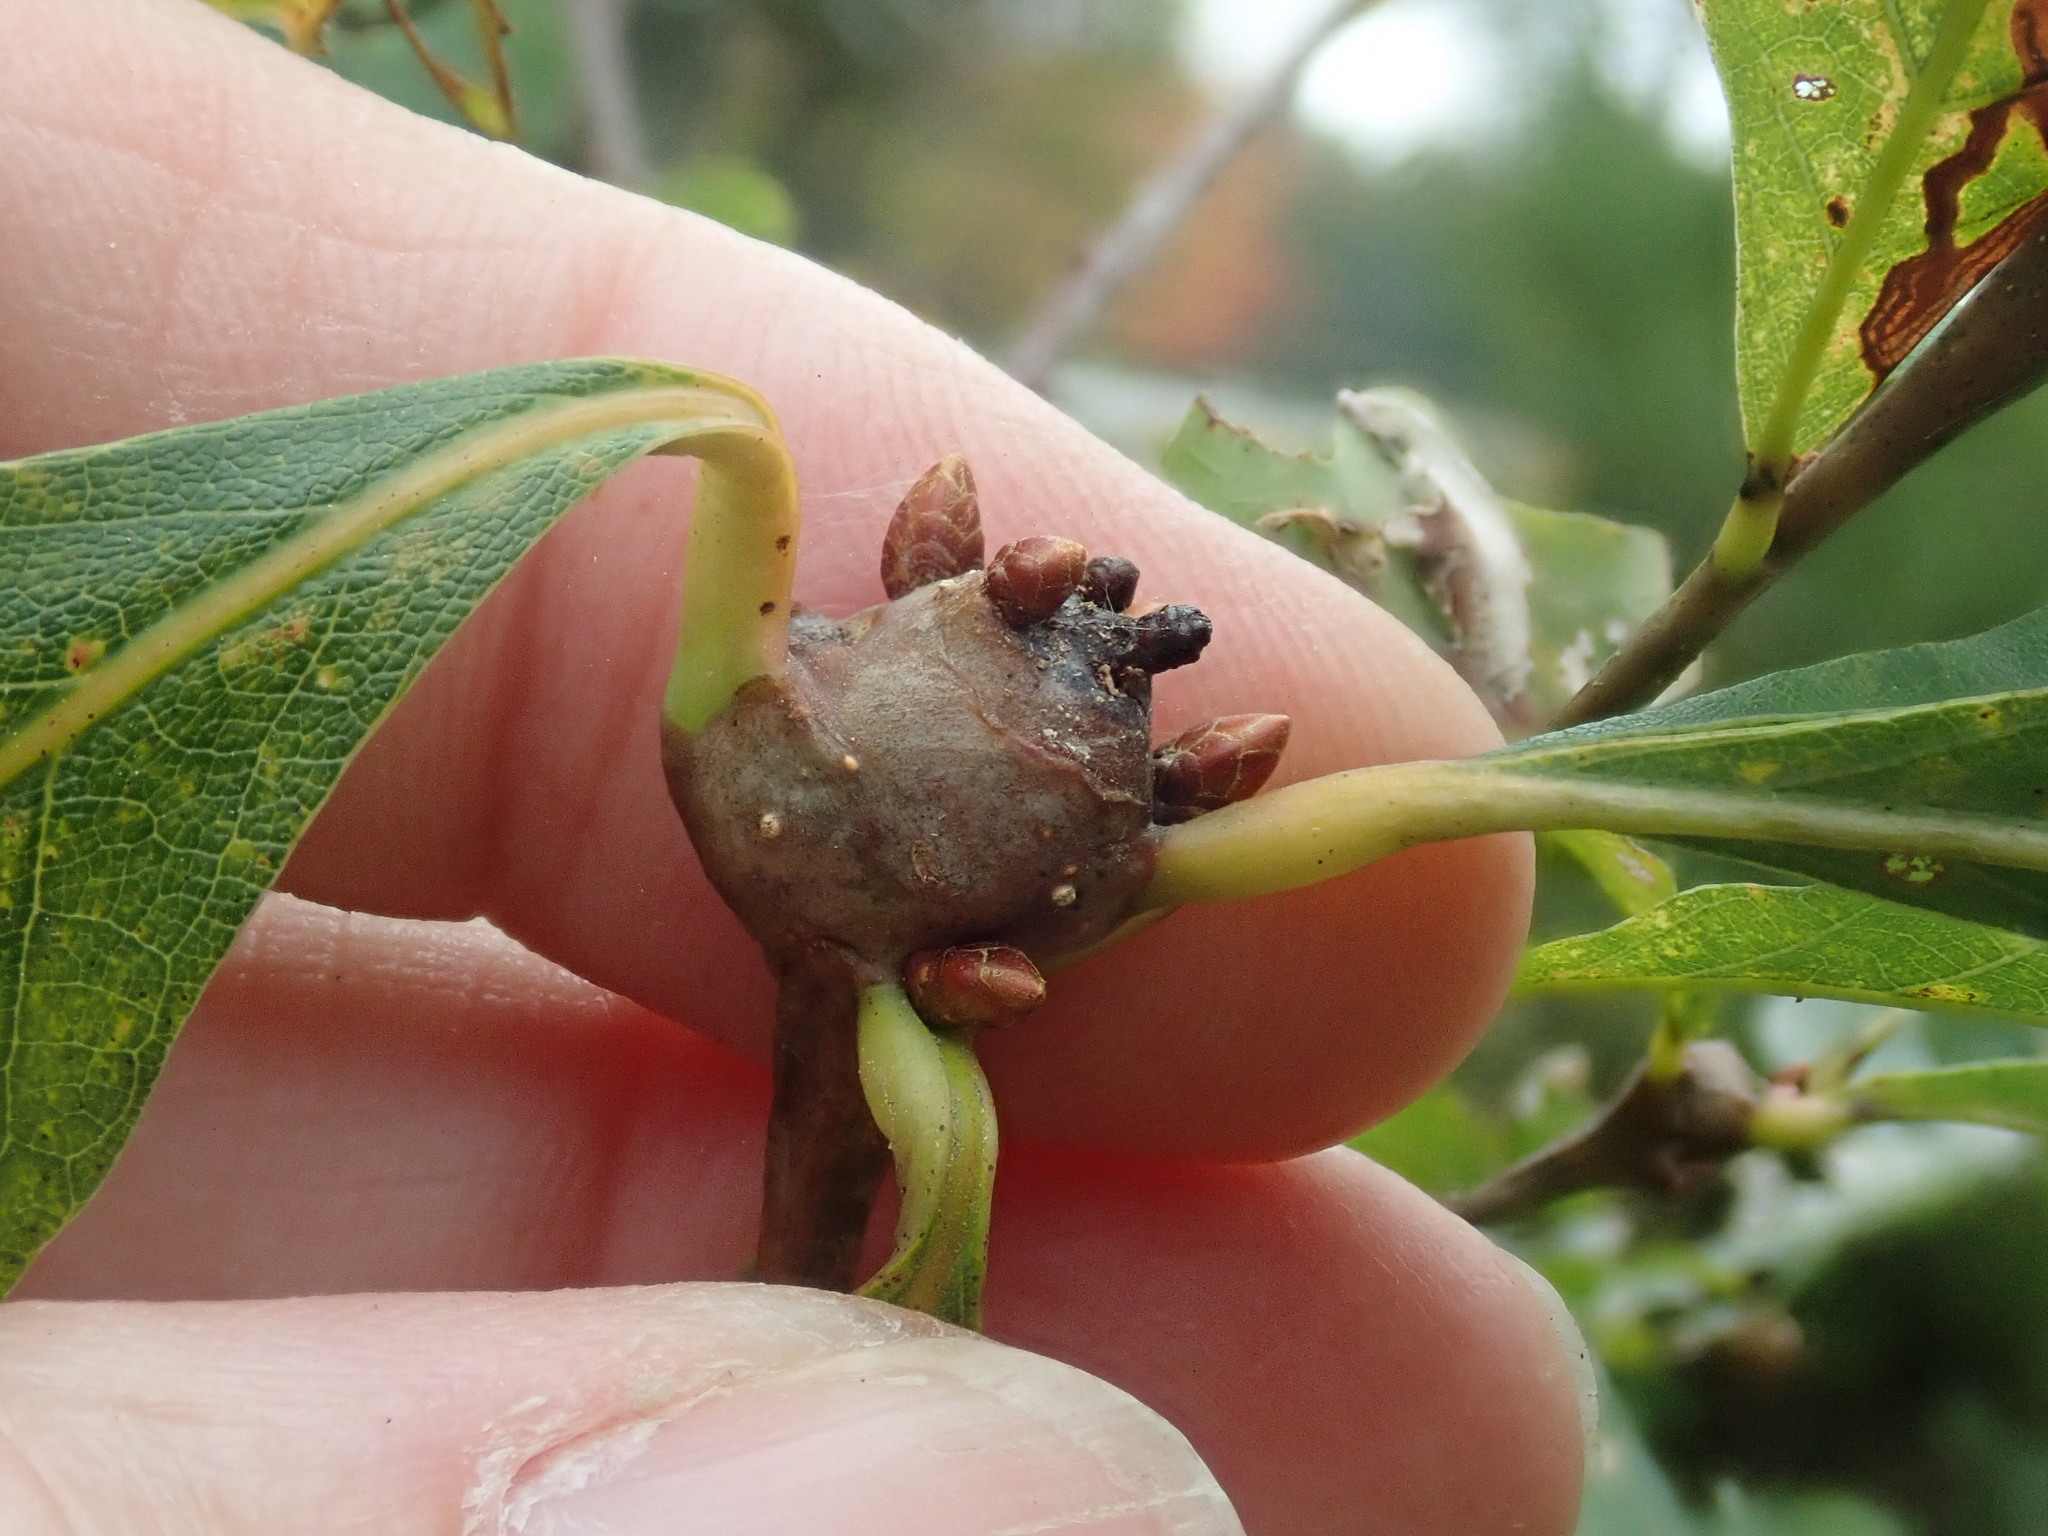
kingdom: Animalia
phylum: Arthropoda
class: Insecta
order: Hymenoptera
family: Cynipidae
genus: Callirhytis
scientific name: Callirhytis clavula
